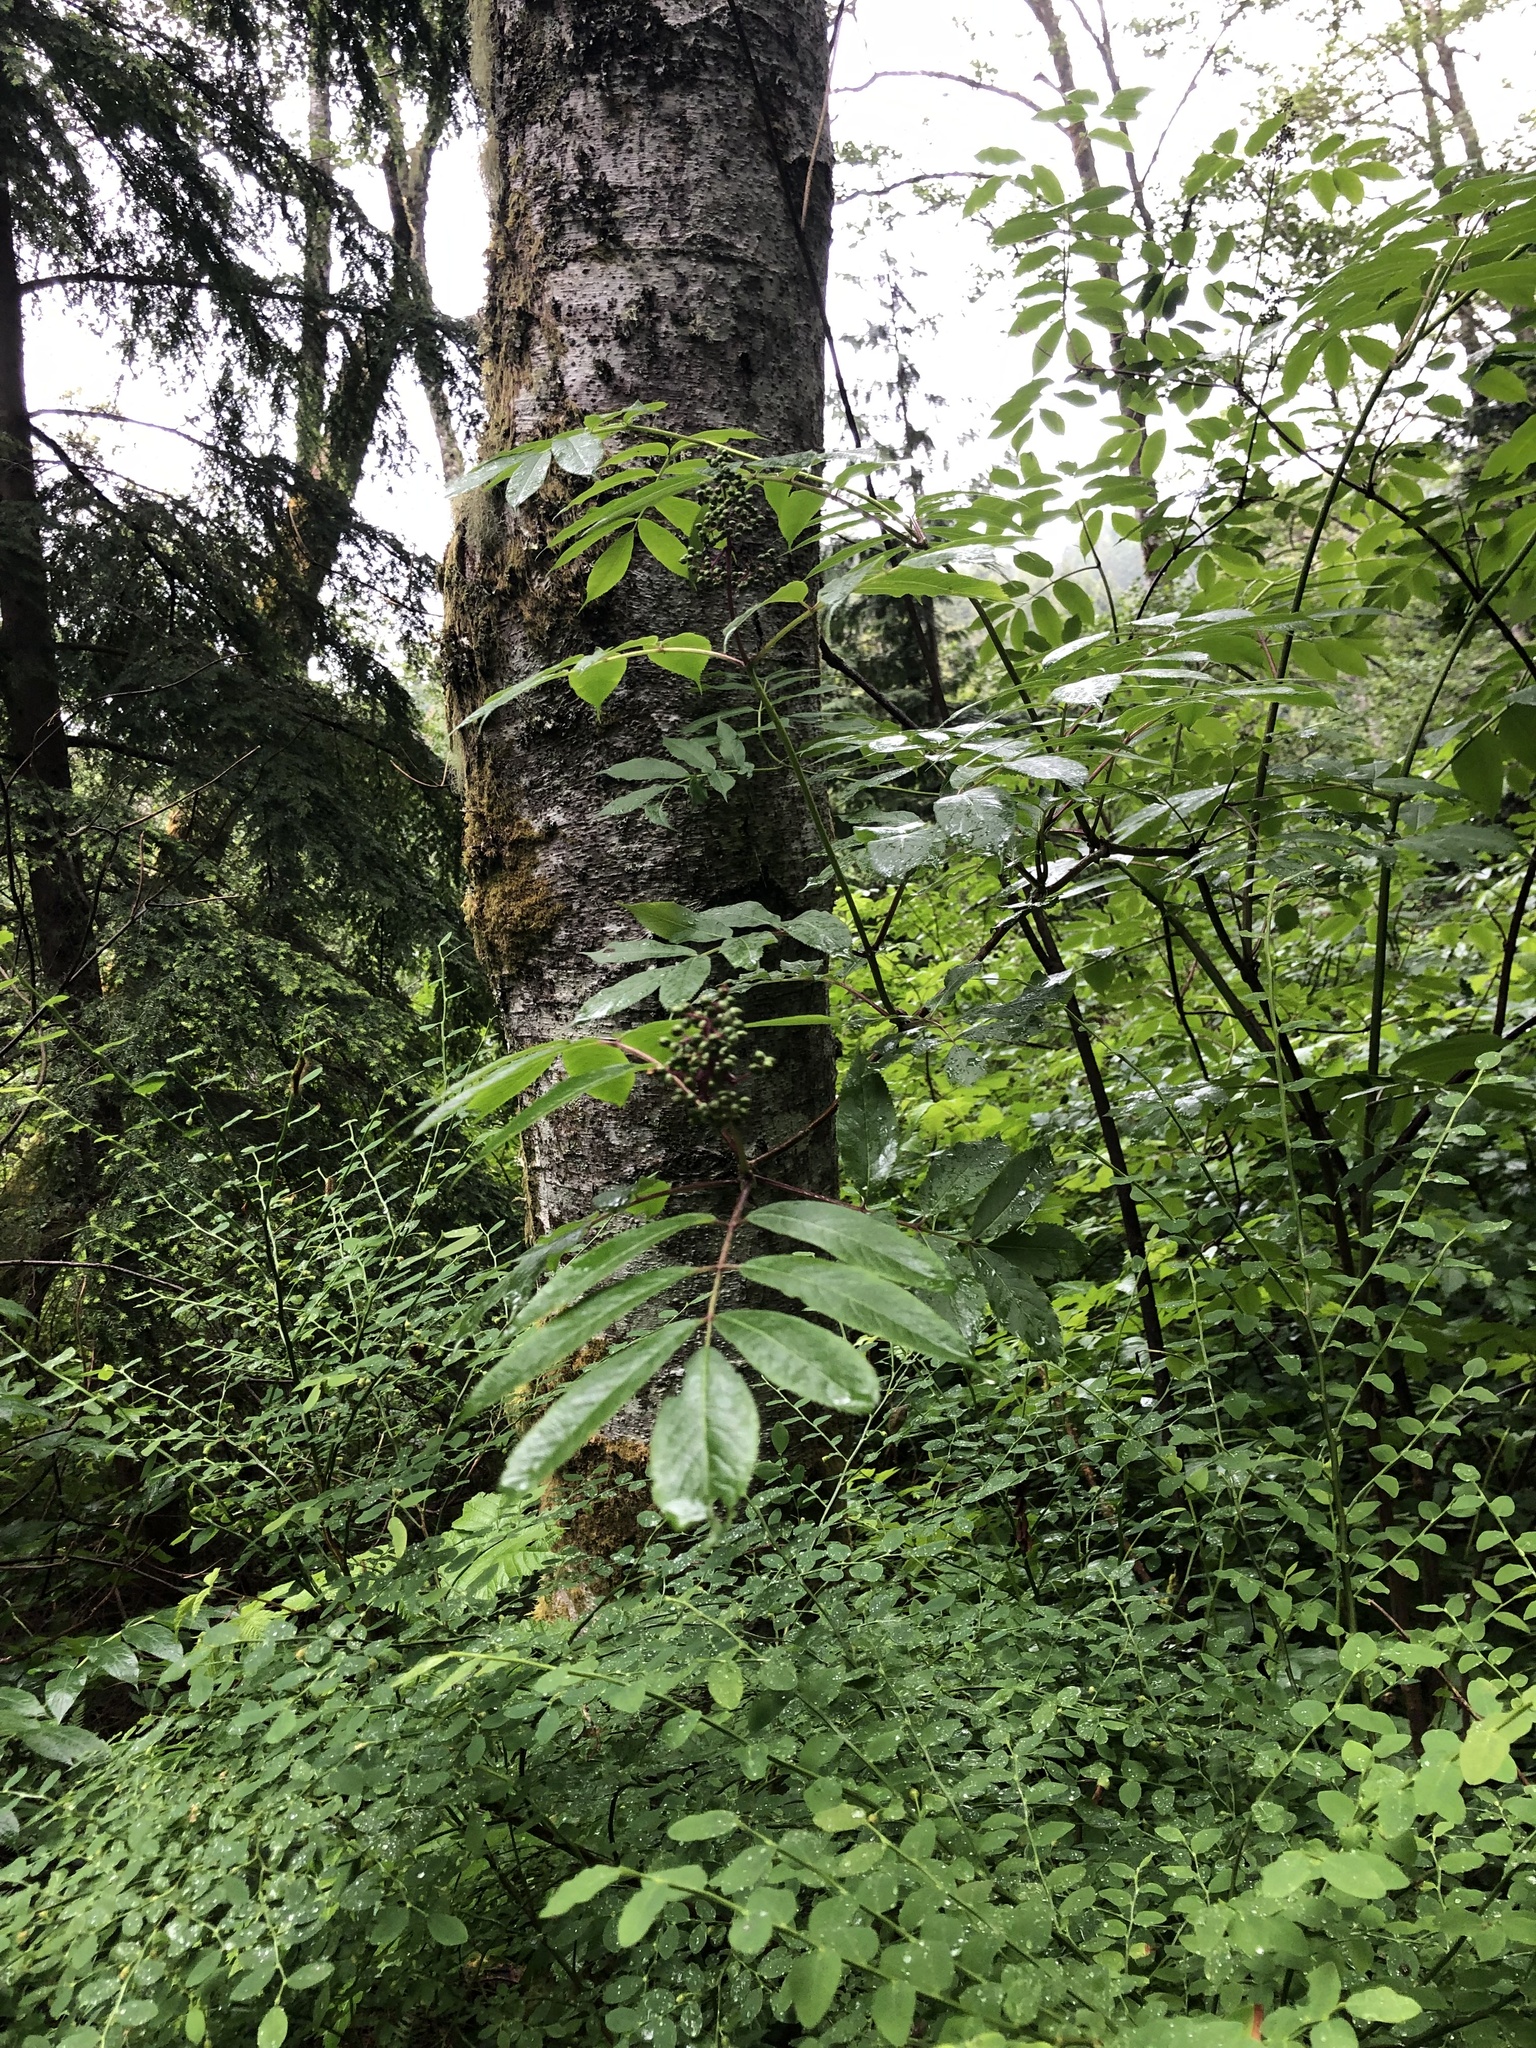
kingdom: Plantae
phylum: Tracheophyta
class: Magnoliopsida
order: Dipsacales
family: Viburnaceae
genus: Sambucus
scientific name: Sambucus racemosa
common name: Red-berried elder
